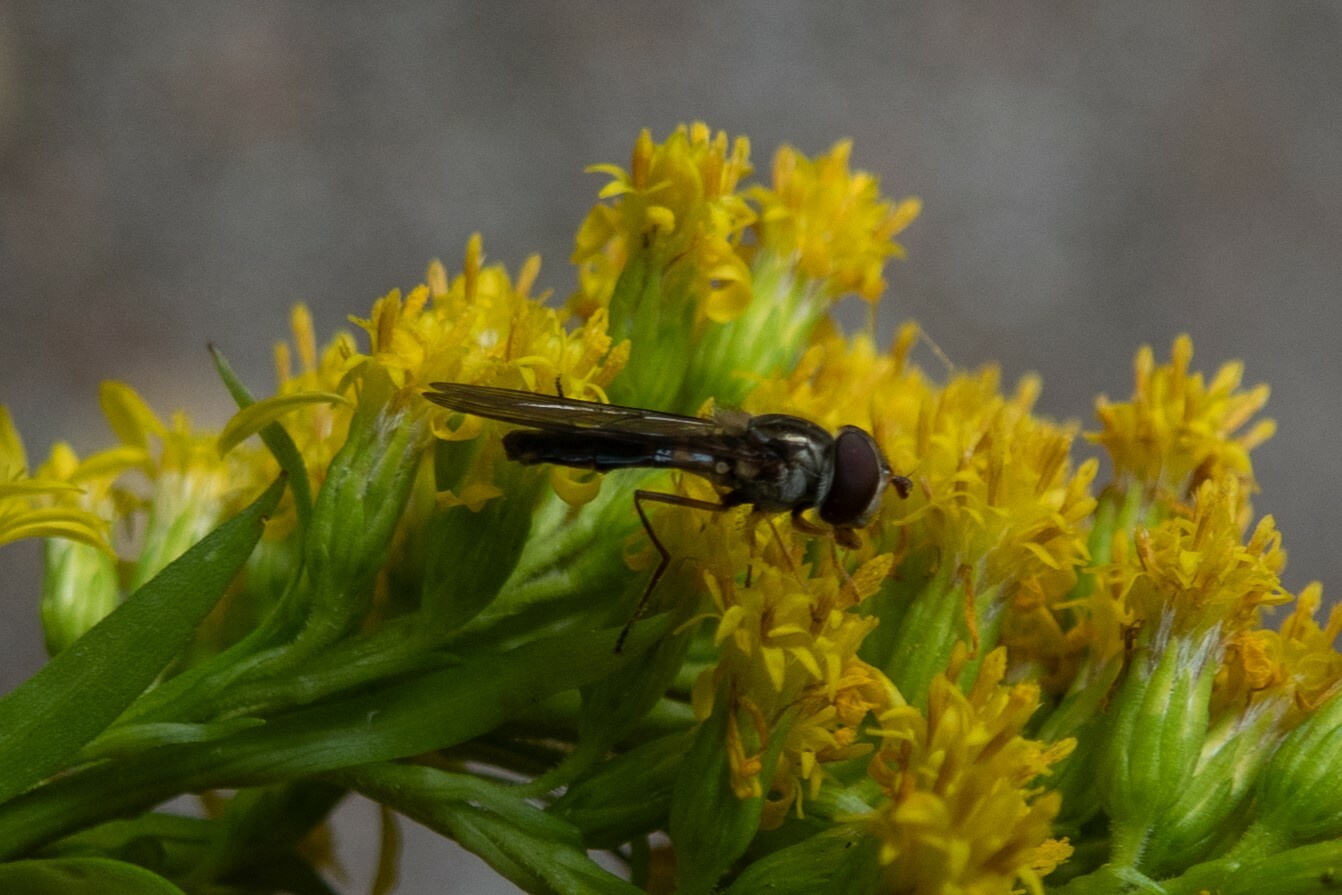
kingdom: Animalia
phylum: Arthropoda
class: Insecta
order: Diptera
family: Syrphidae
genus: Episyrphus
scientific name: Episyrphus balteatus
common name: Marmalade hoverfly
